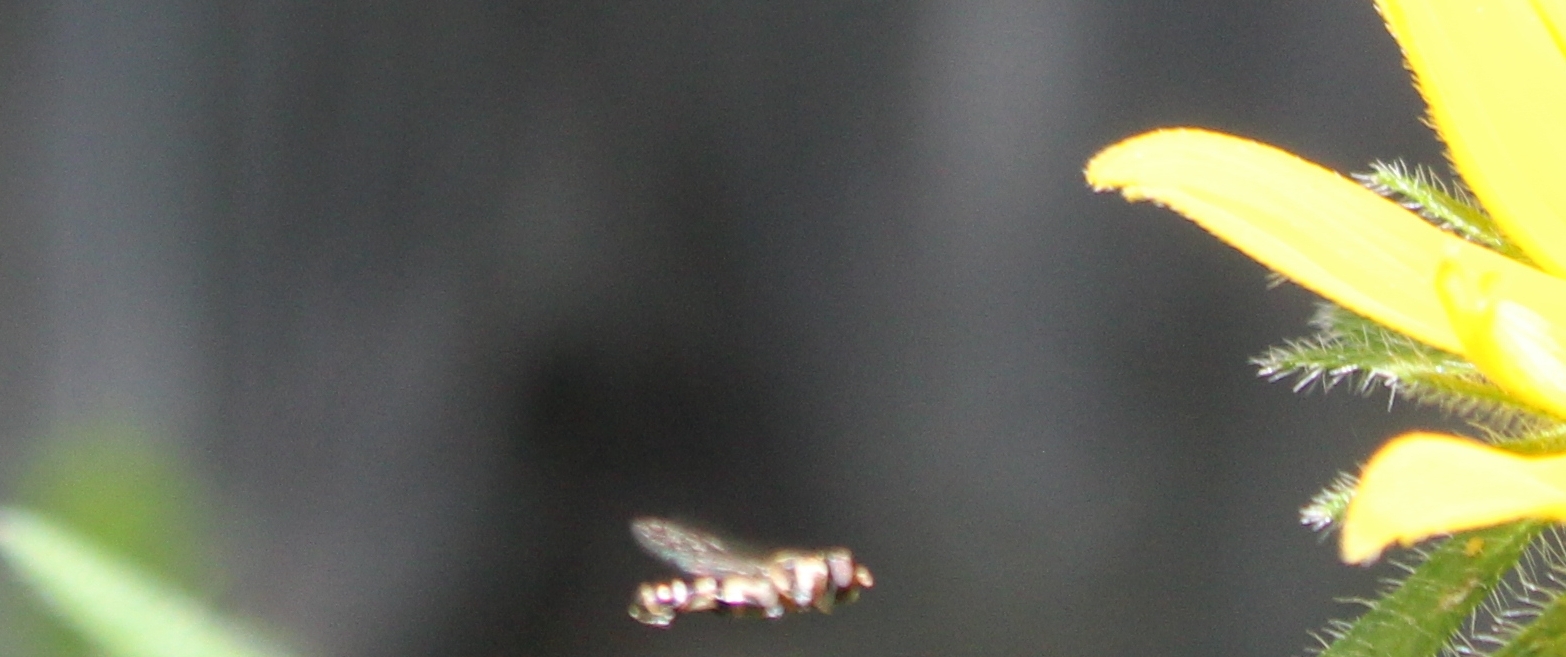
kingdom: Animalia
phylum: Arthropoda
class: Insecta
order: Diptera
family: Syrphidae
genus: Syritta
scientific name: Syritta pipiens
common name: Hover fly
